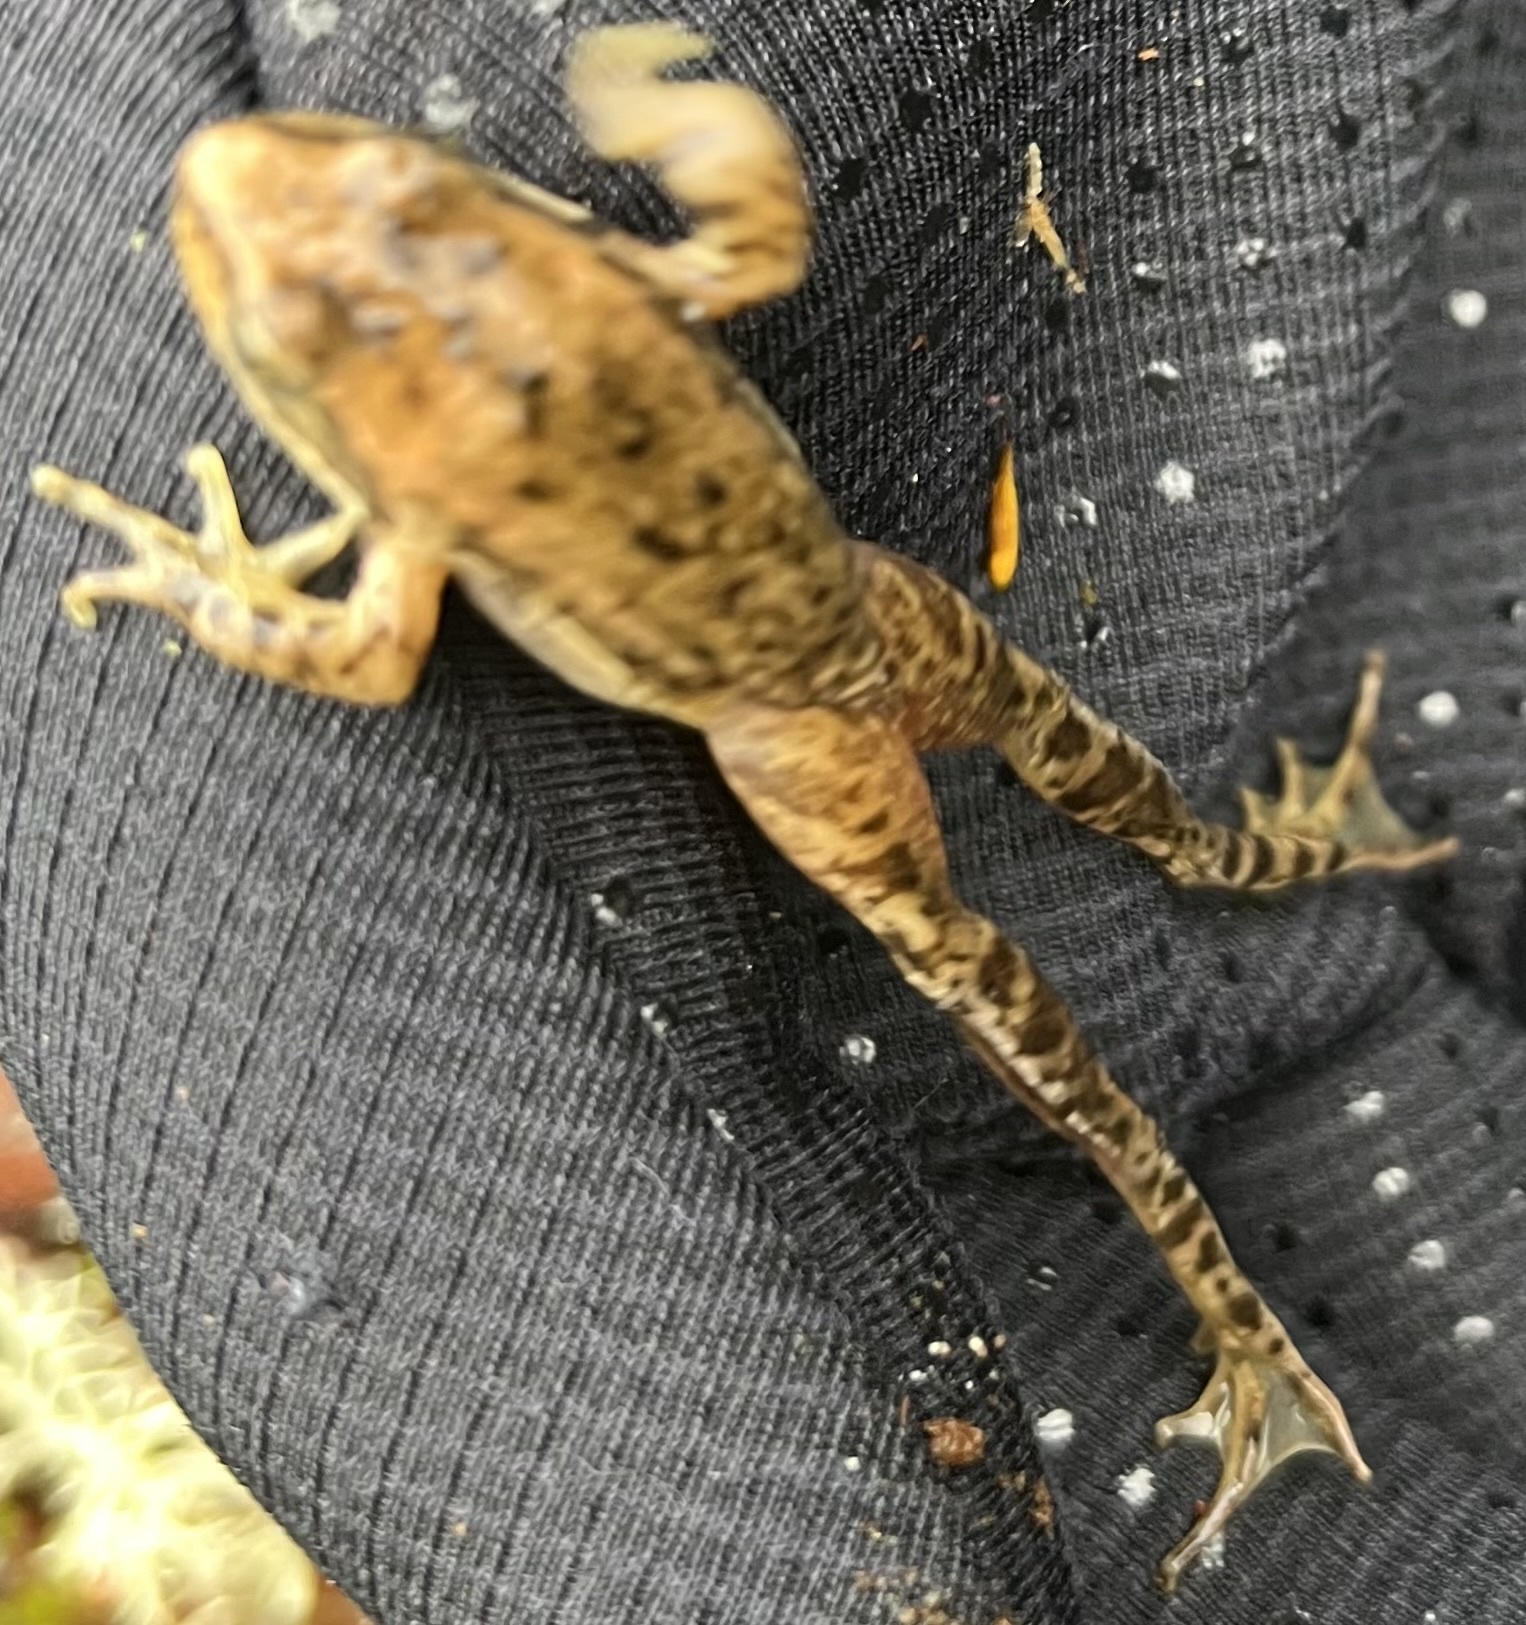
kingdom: Animalia
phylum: Chordata
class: Amphibia
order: Anura
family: Ranidae
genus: Rana
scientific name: Rana aurora
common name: Red-legged frog
